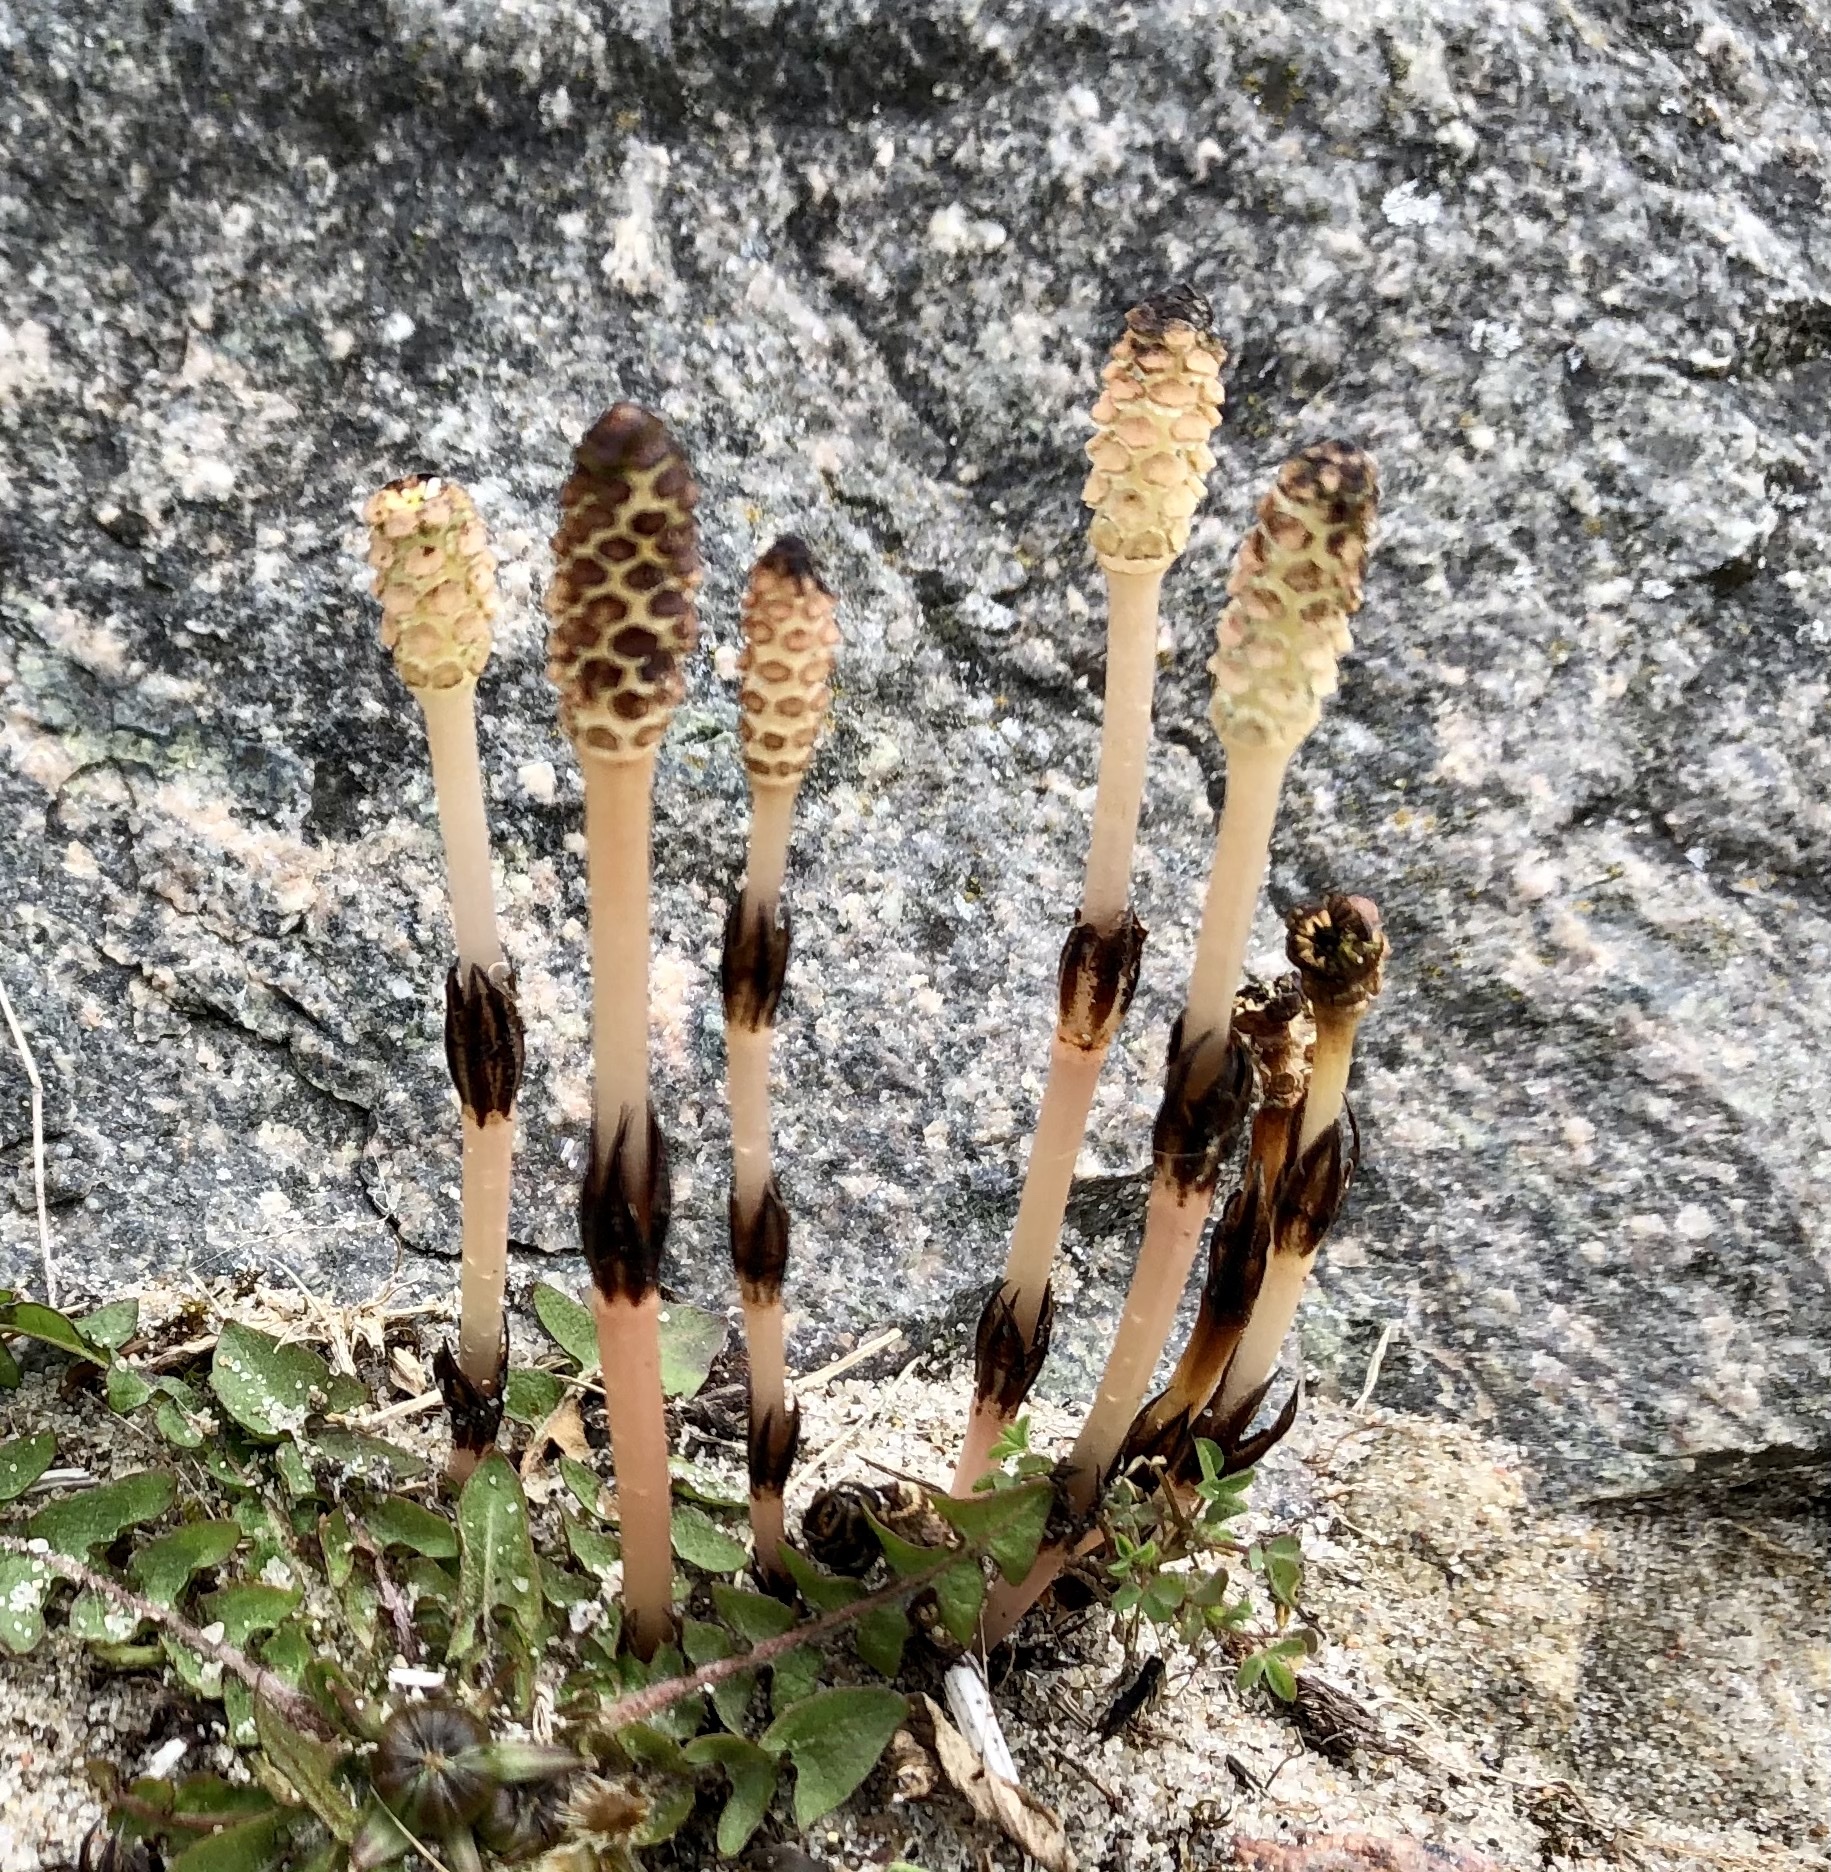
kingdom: Plantae
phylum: Tracheophyta
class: Polypodiopsida
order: Equisetales
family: Equisetaceae
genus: Equisetum
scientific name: Equisetum arvense
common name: Field horsetail
